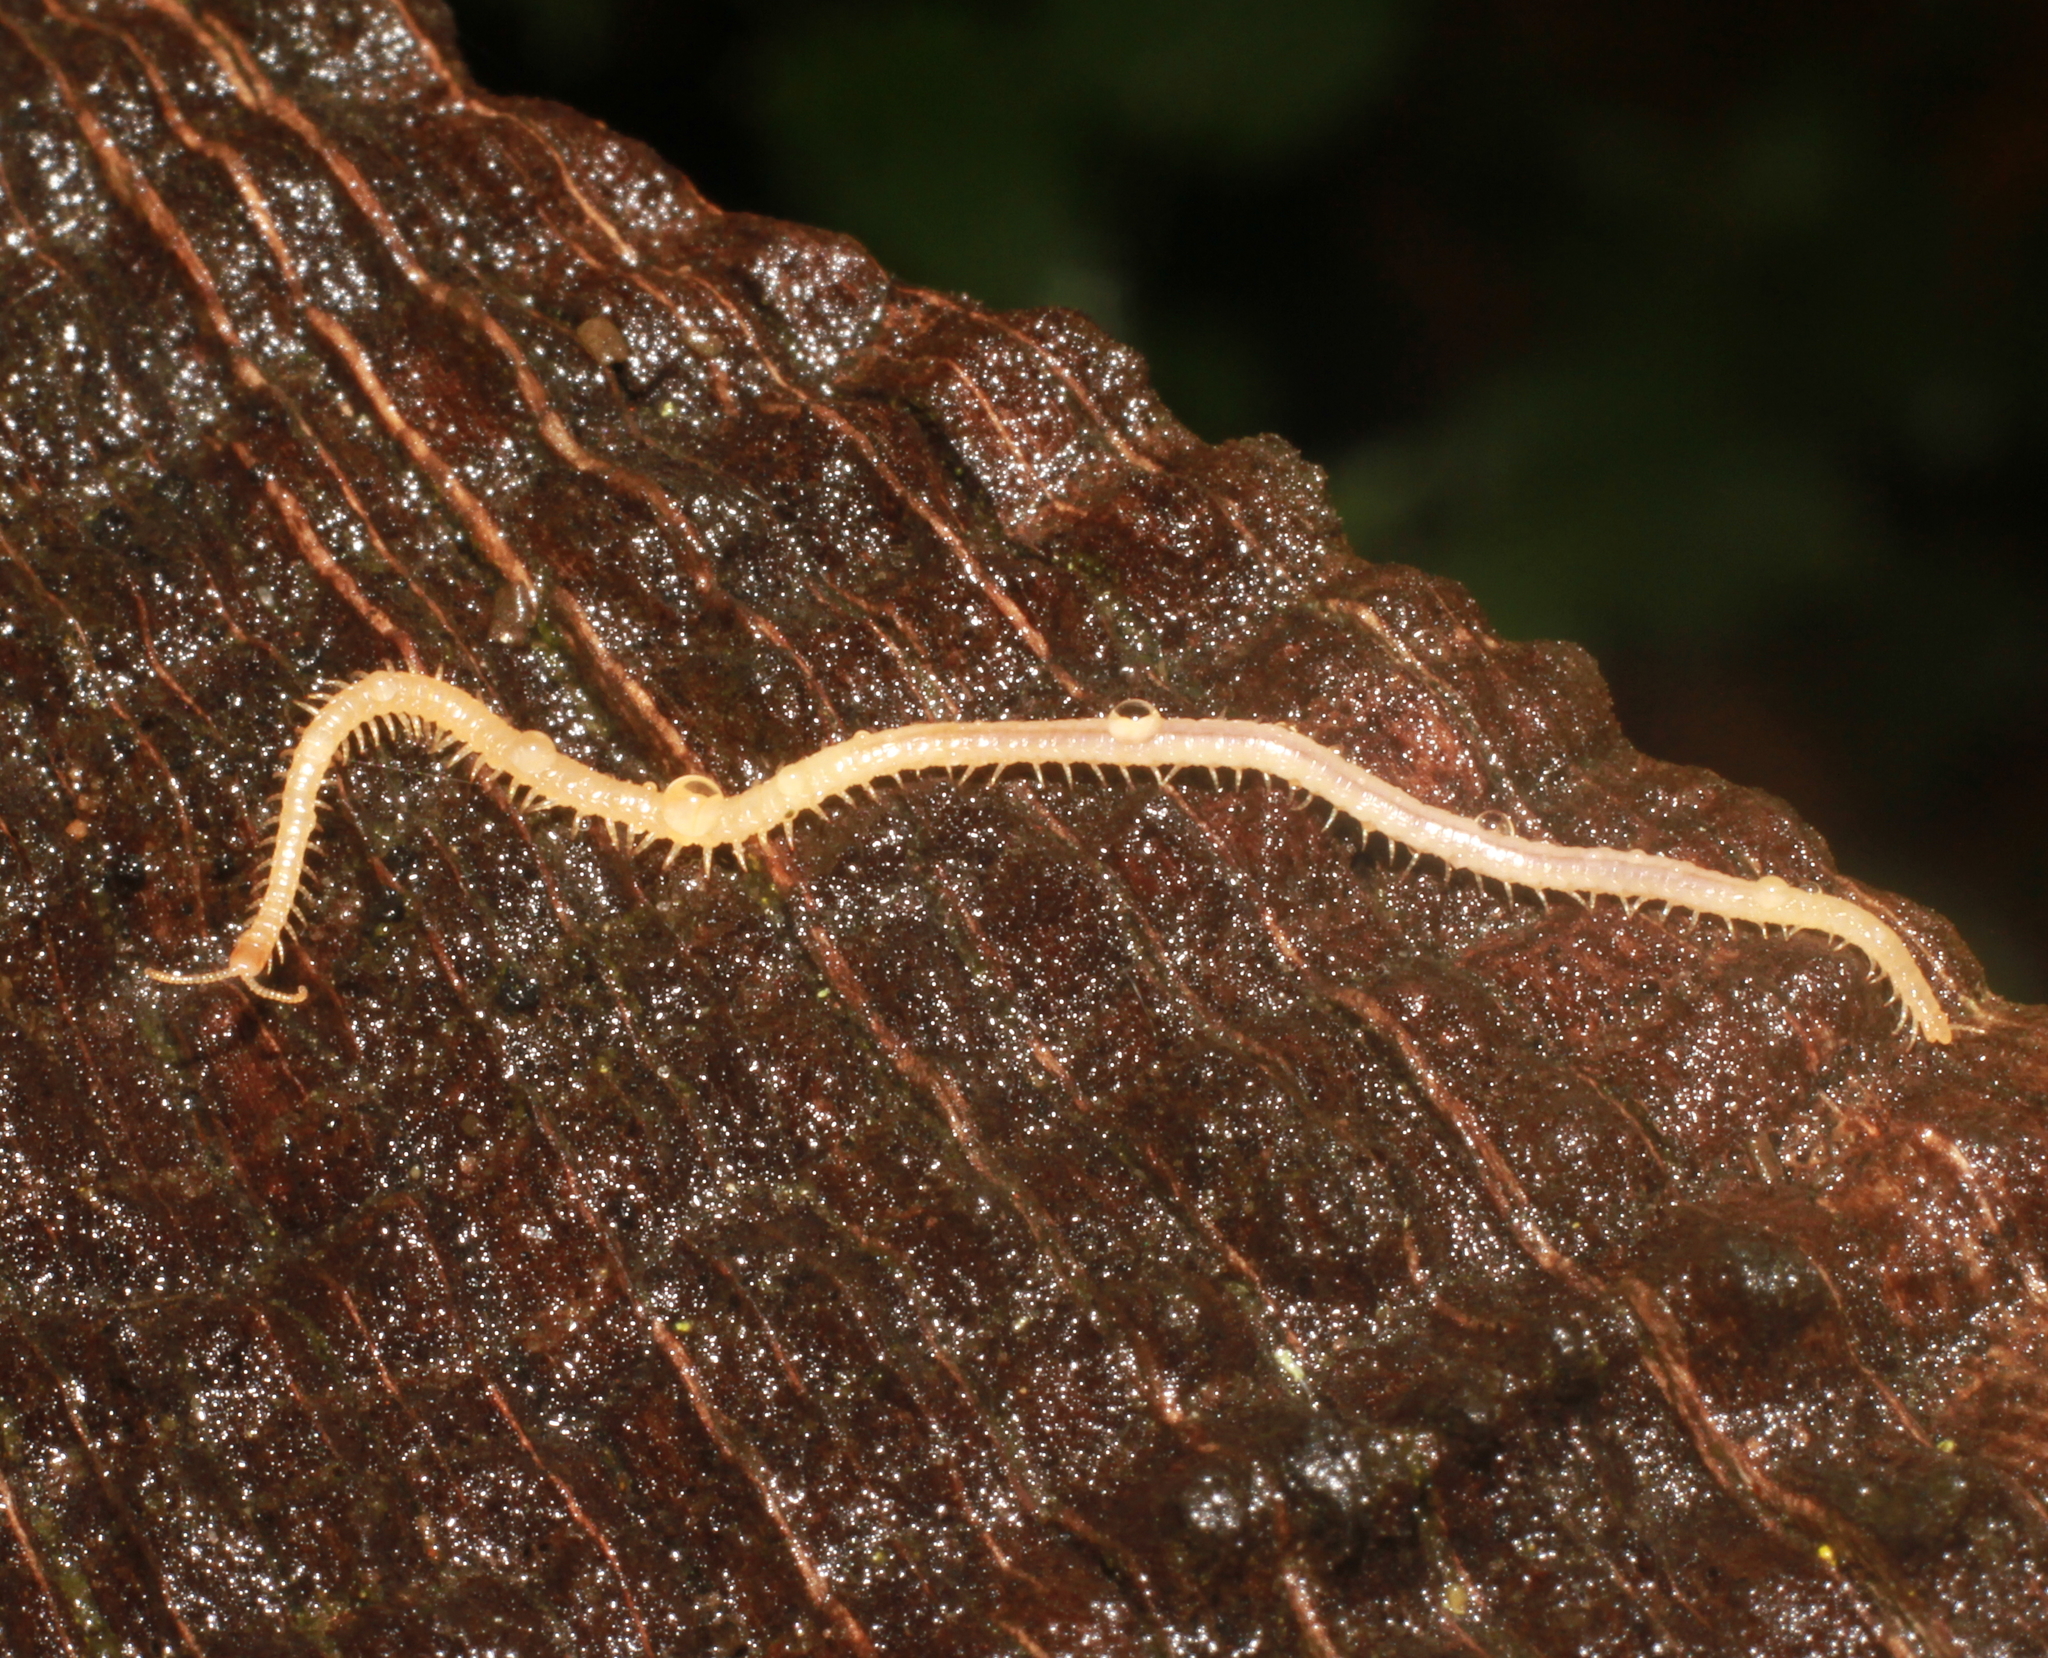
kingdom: Animalia
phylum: Arthropoda
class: Chilopoda
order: Geophilomorpha
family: Himantariidae
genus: Stigmatogaster
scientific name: Stigmatogaster subterranea
